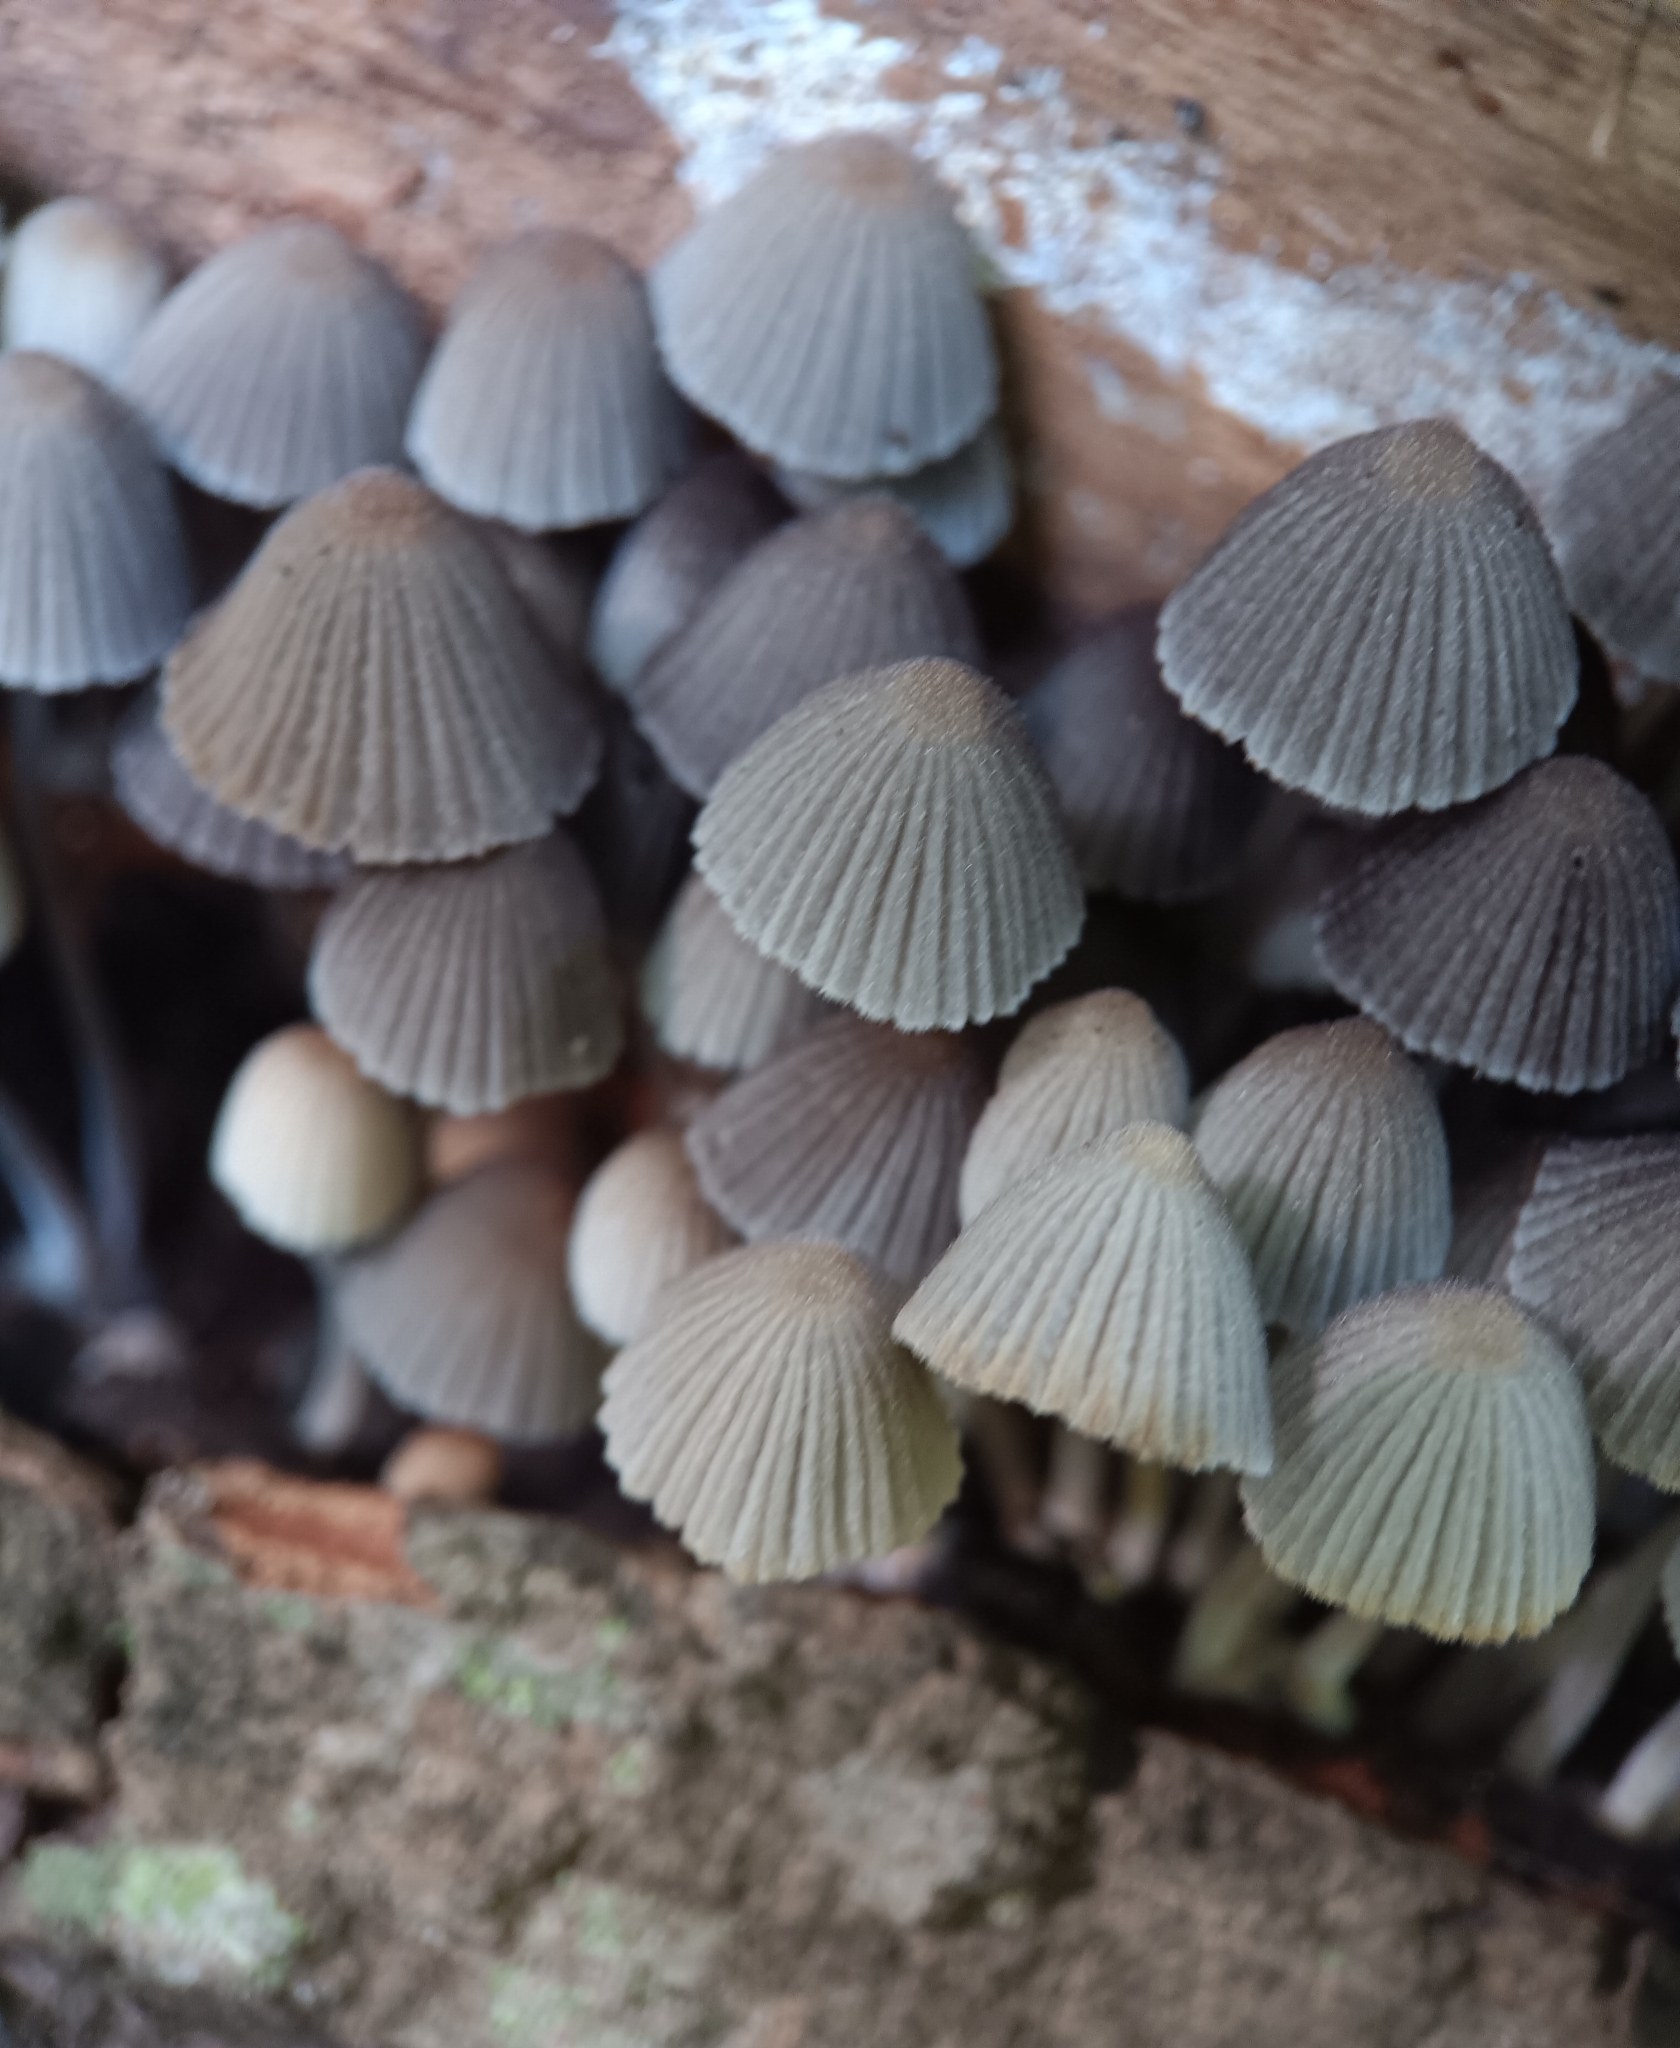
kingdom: Fungi
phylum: Basidiomycota
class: Agaricomycetes
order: Agaricales
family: Psathyrellaceae
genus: Coprinellus
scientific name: Coprinellus disseminatus
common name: Fairies' bonnets
